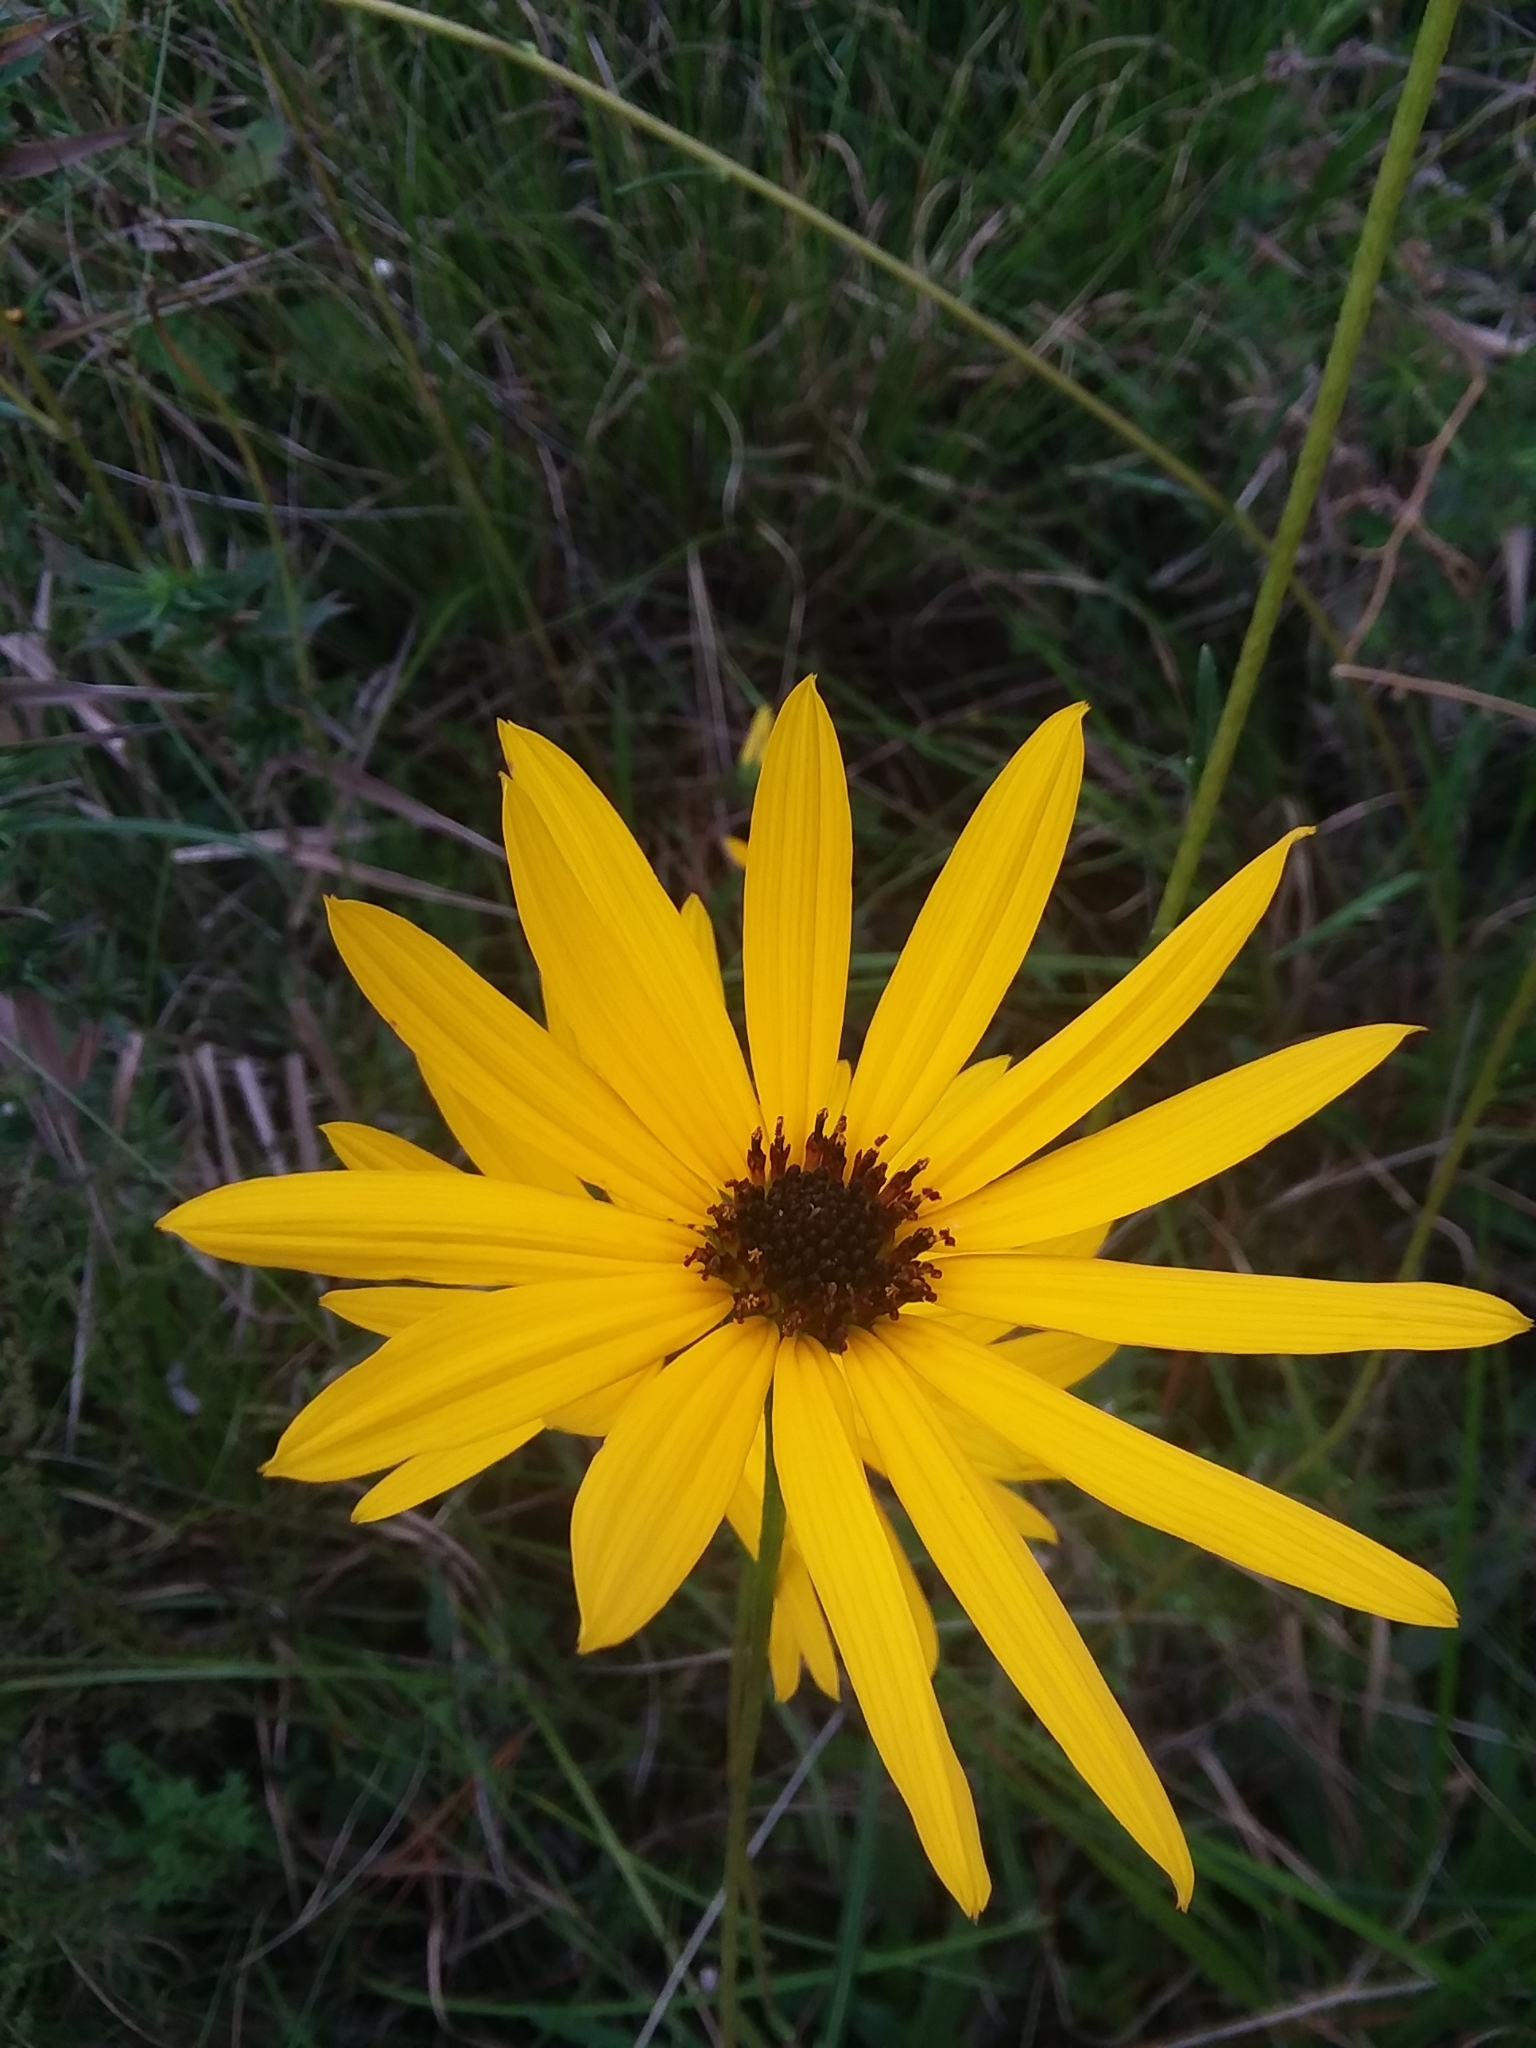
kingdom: Plantae
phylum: Tracheophyta
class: Magnoliopsida
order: Asterales
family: Asteraceae
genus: Helianthus
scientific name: Helianthus heterophyllus
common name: Wetland sunflower
